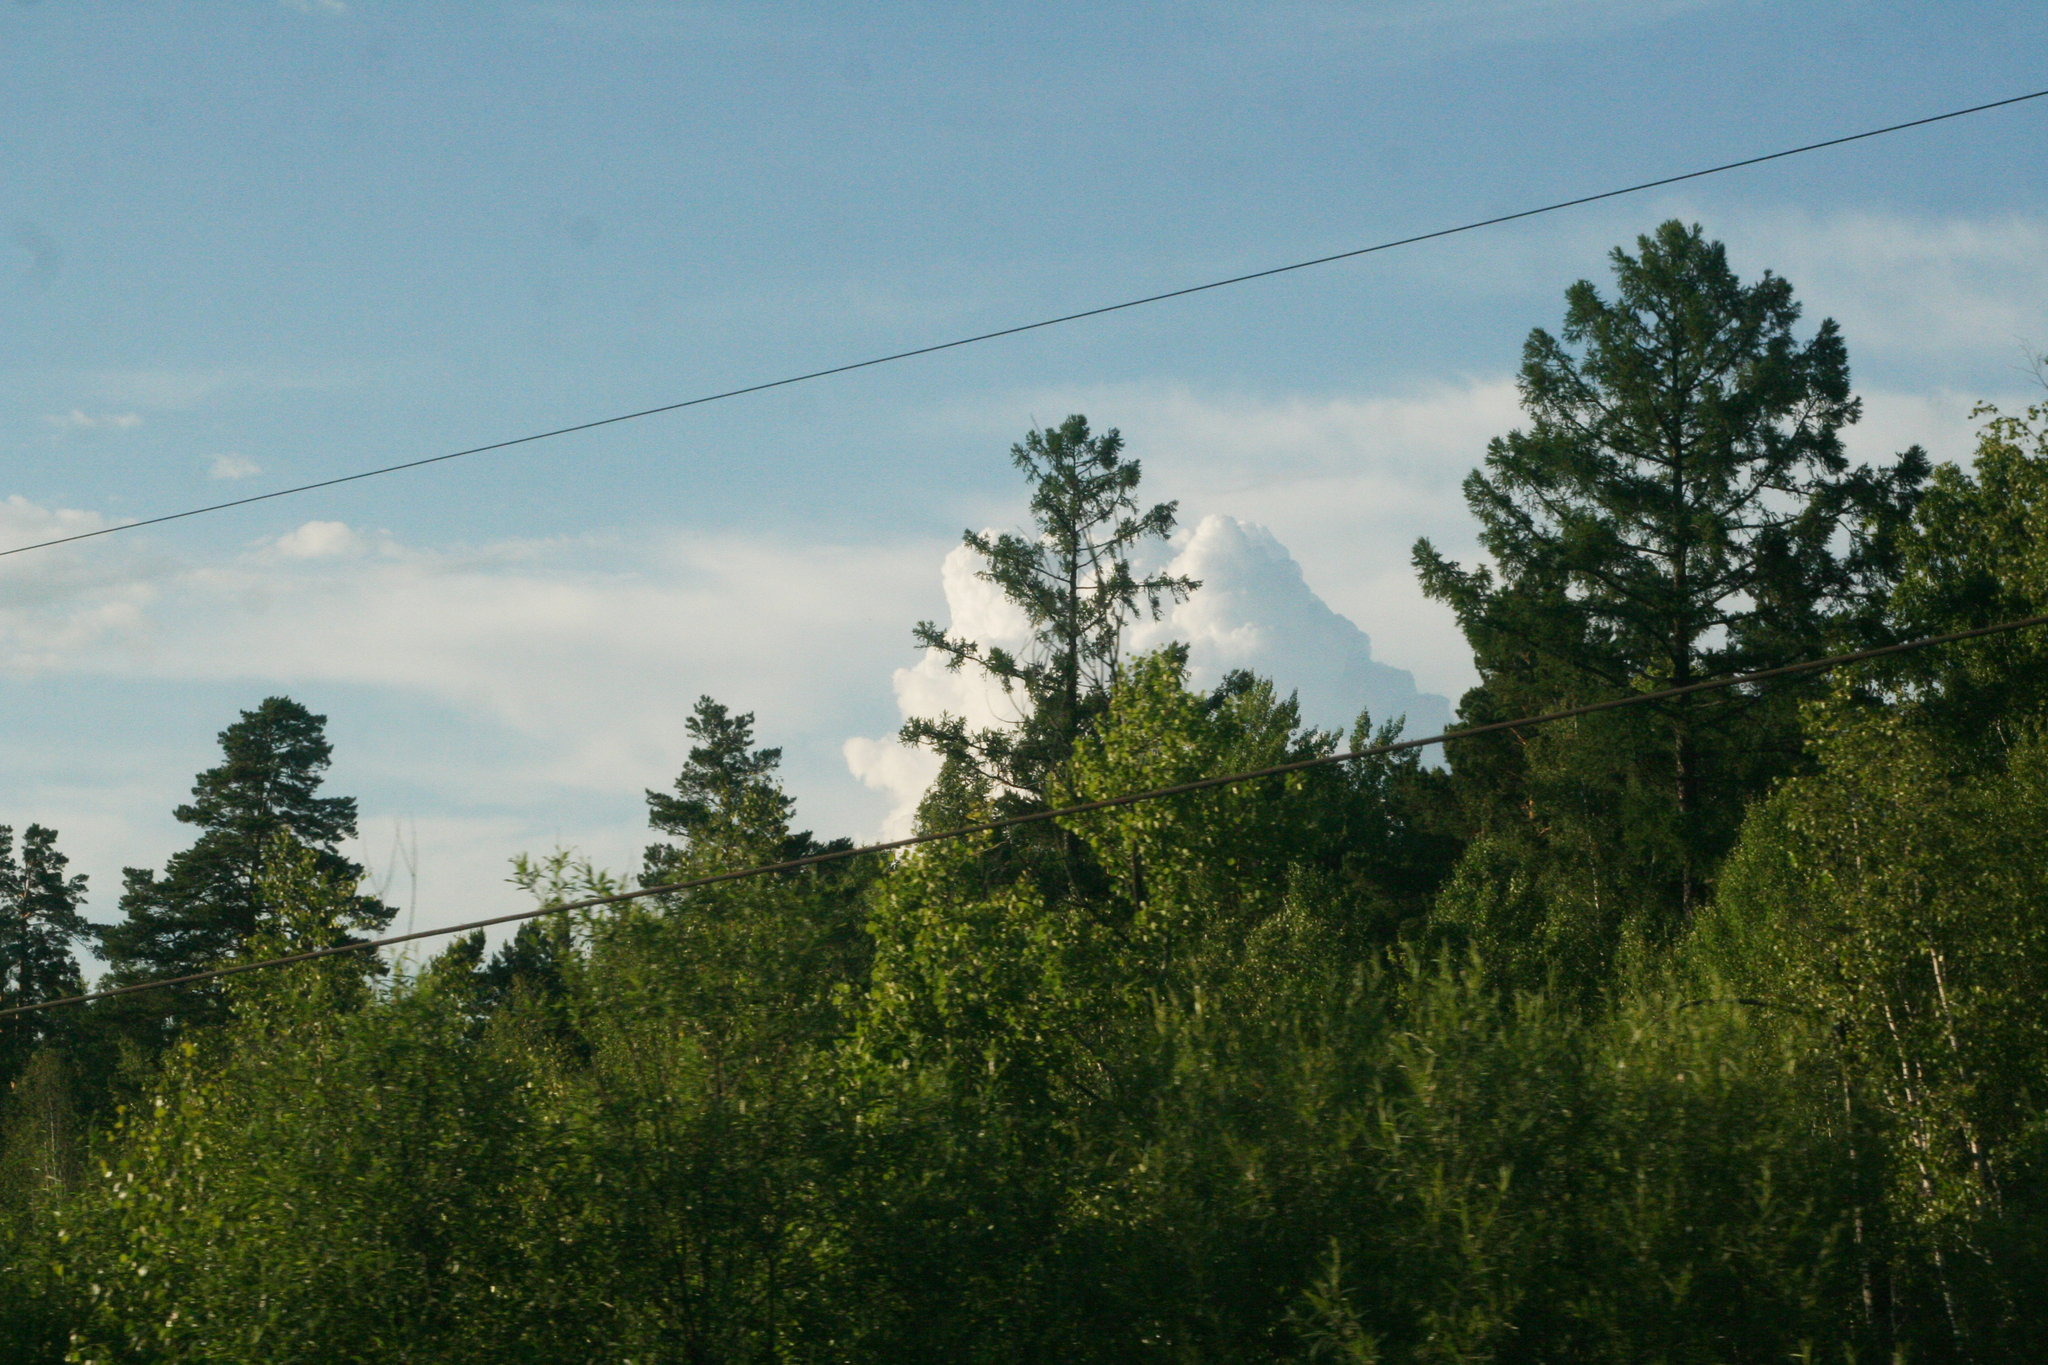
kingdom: Plantae
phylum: Tracheophyta
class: Pinopsida
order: Pinales
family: Pinaceae
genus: Larix
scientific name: Larix sibirica
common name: Siberian larch
